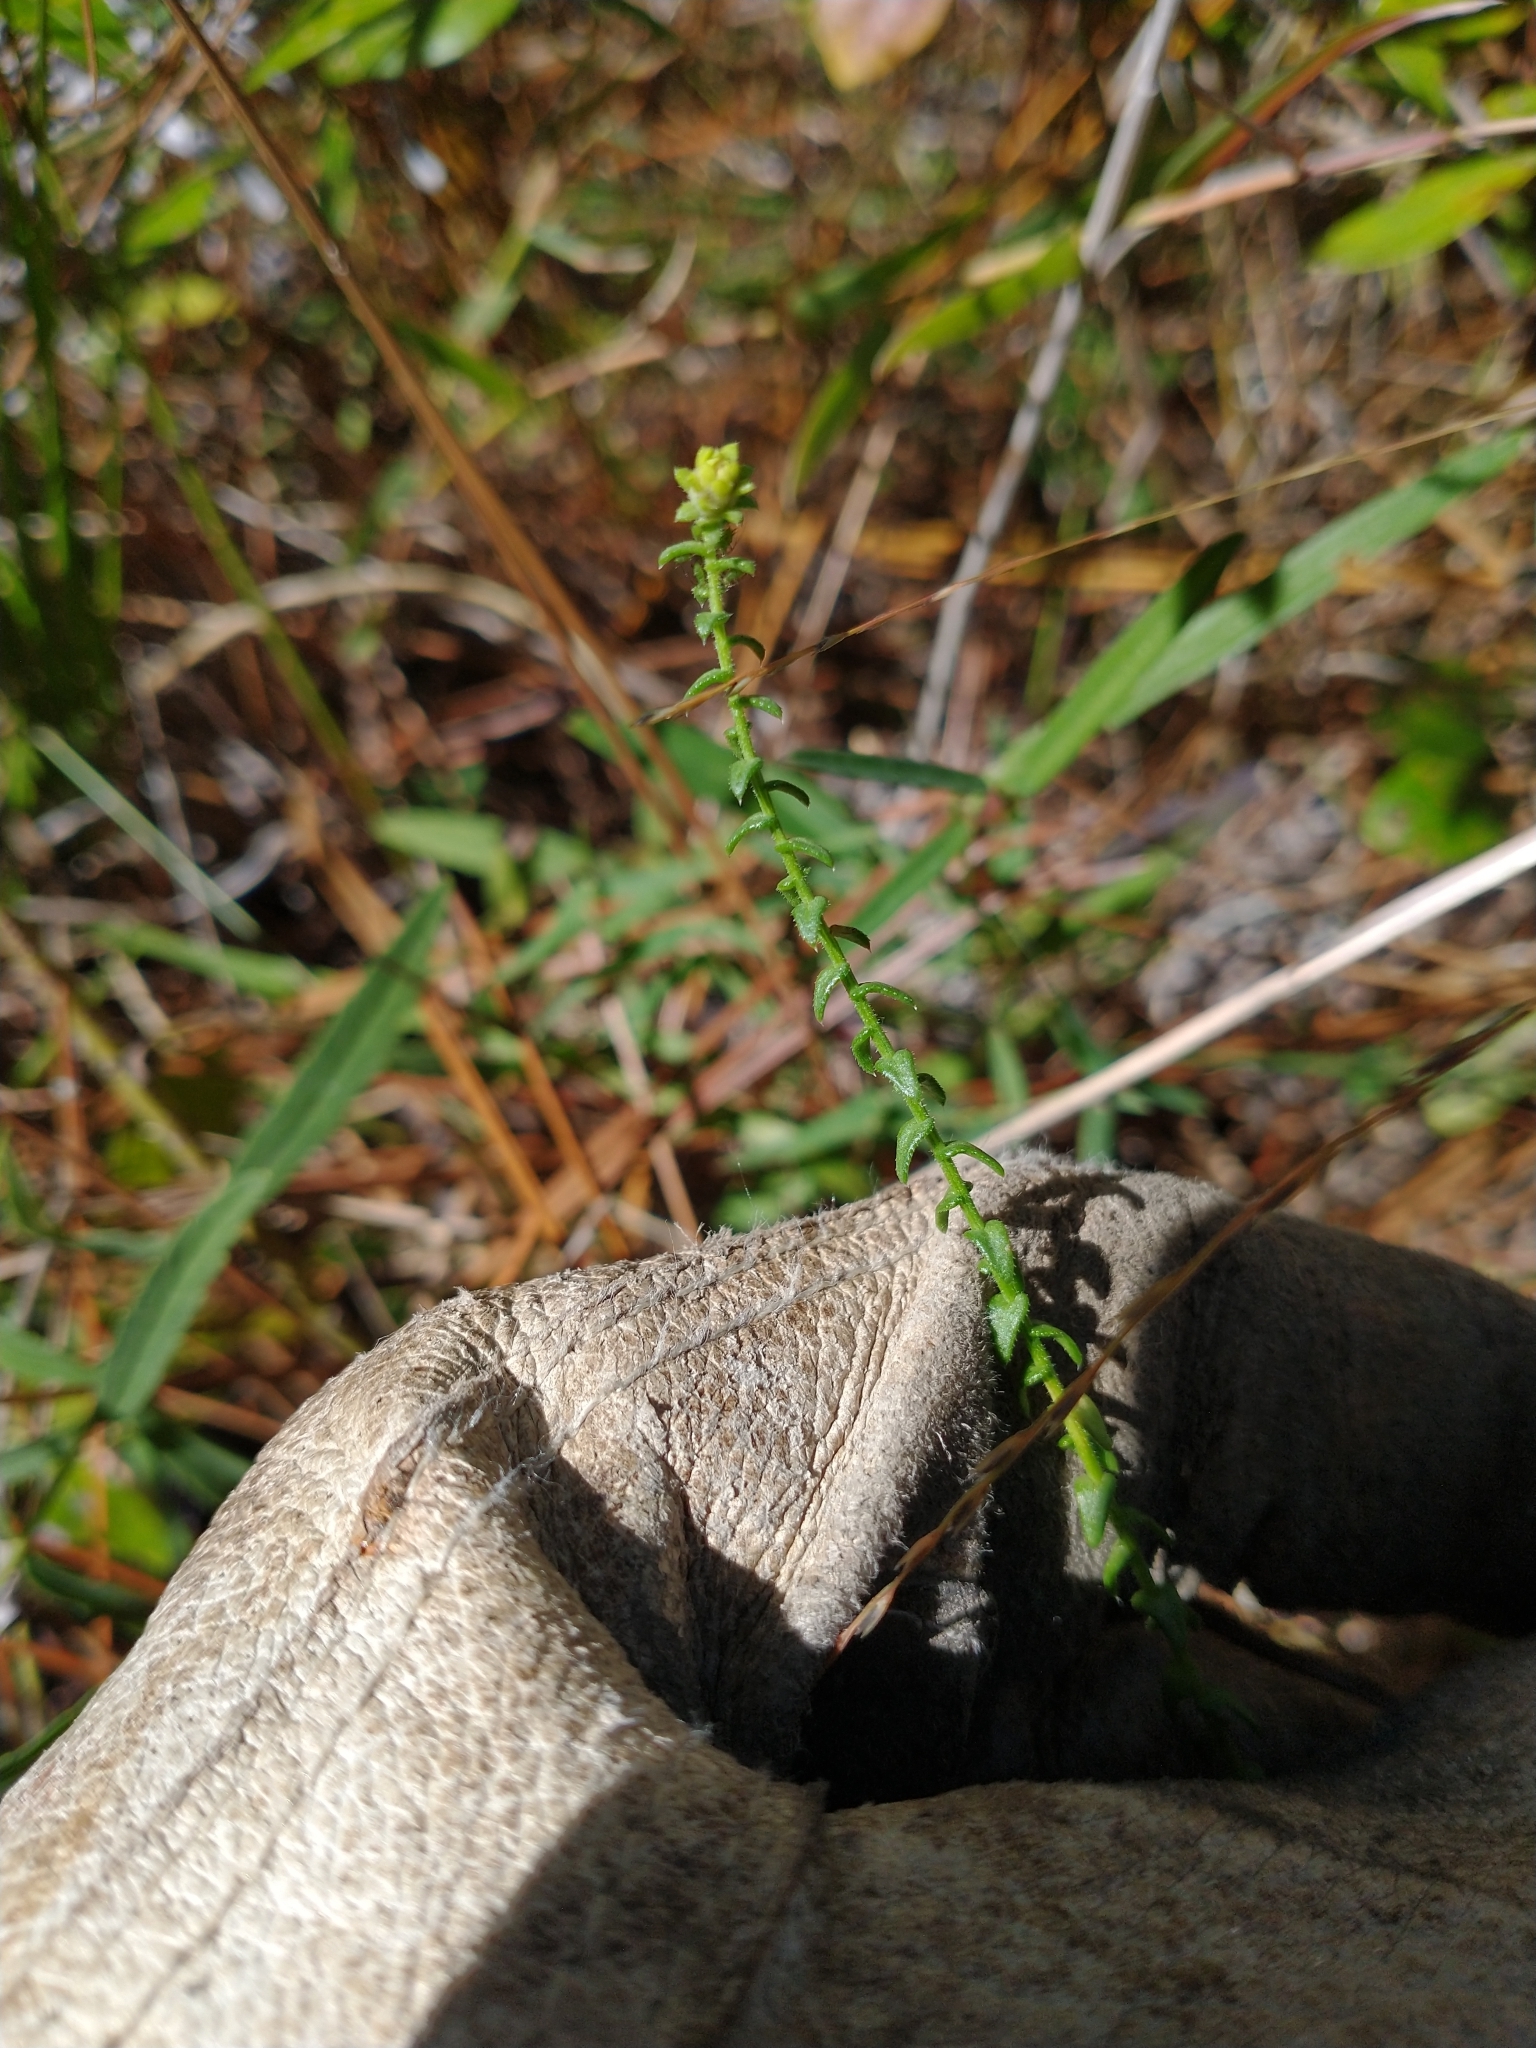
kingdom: Plantae
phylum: Tracheophyta
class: Magnoliopsida
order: Asterales
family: Asteraceae
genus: Symphyotrichum
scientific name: Symphyotrichum walteri
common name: Walter's aster
